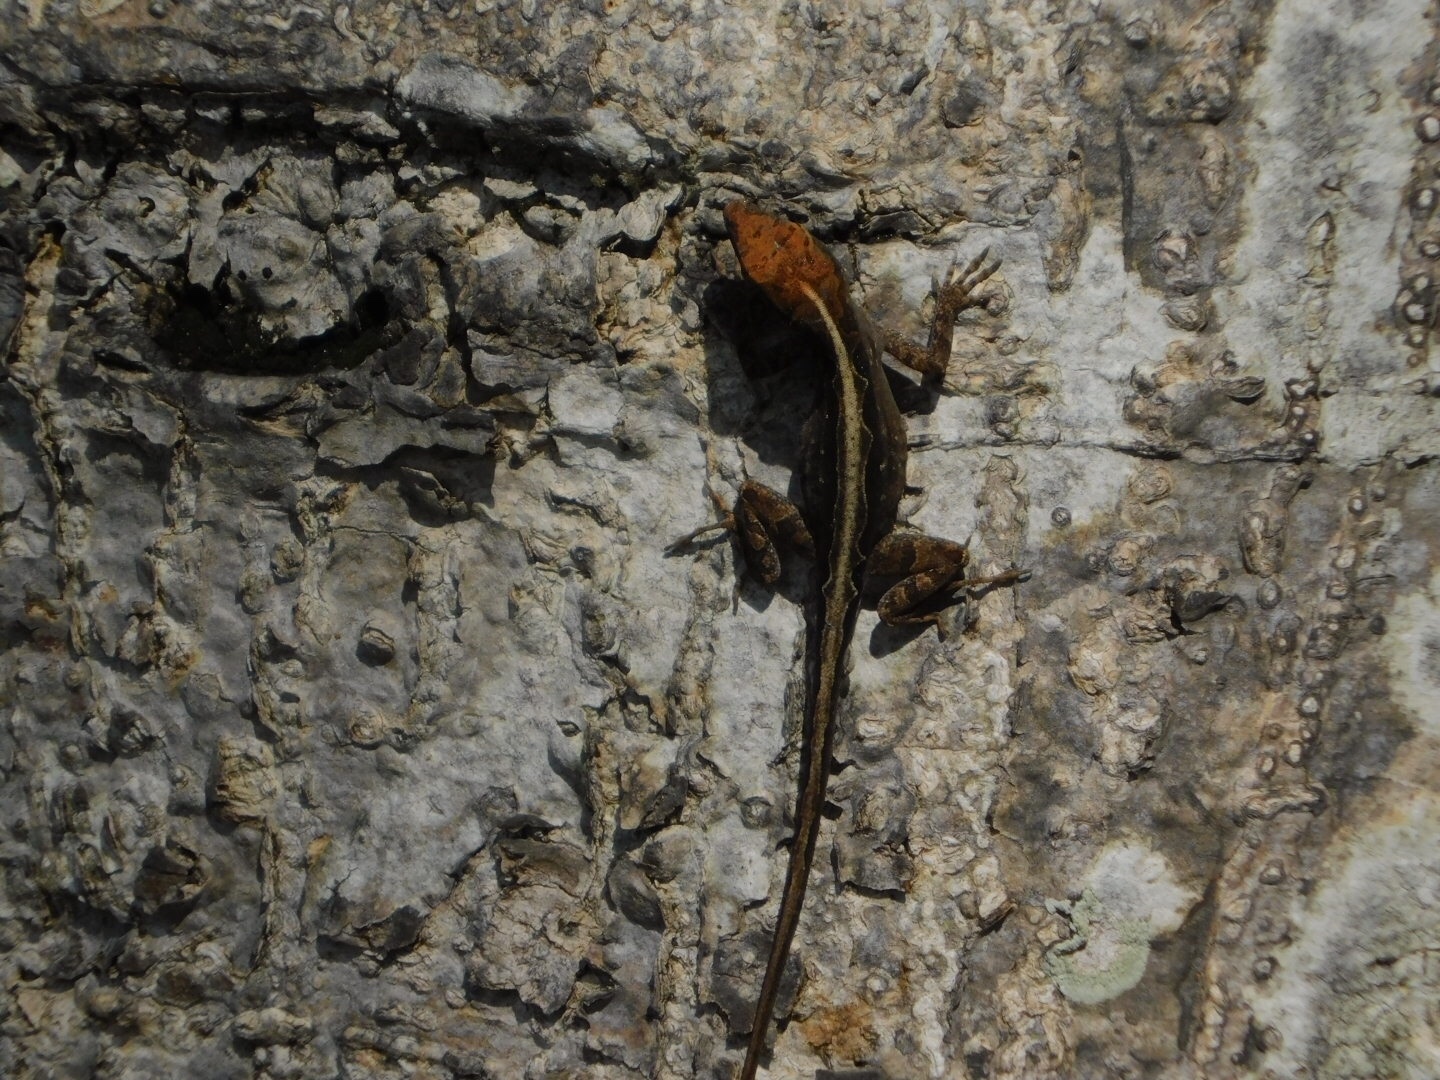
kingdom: Animalia
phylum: Chordata
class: Squamata
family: Dactyloidae
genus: Anolis
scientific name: Anolis sagrei
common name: Brown anole
